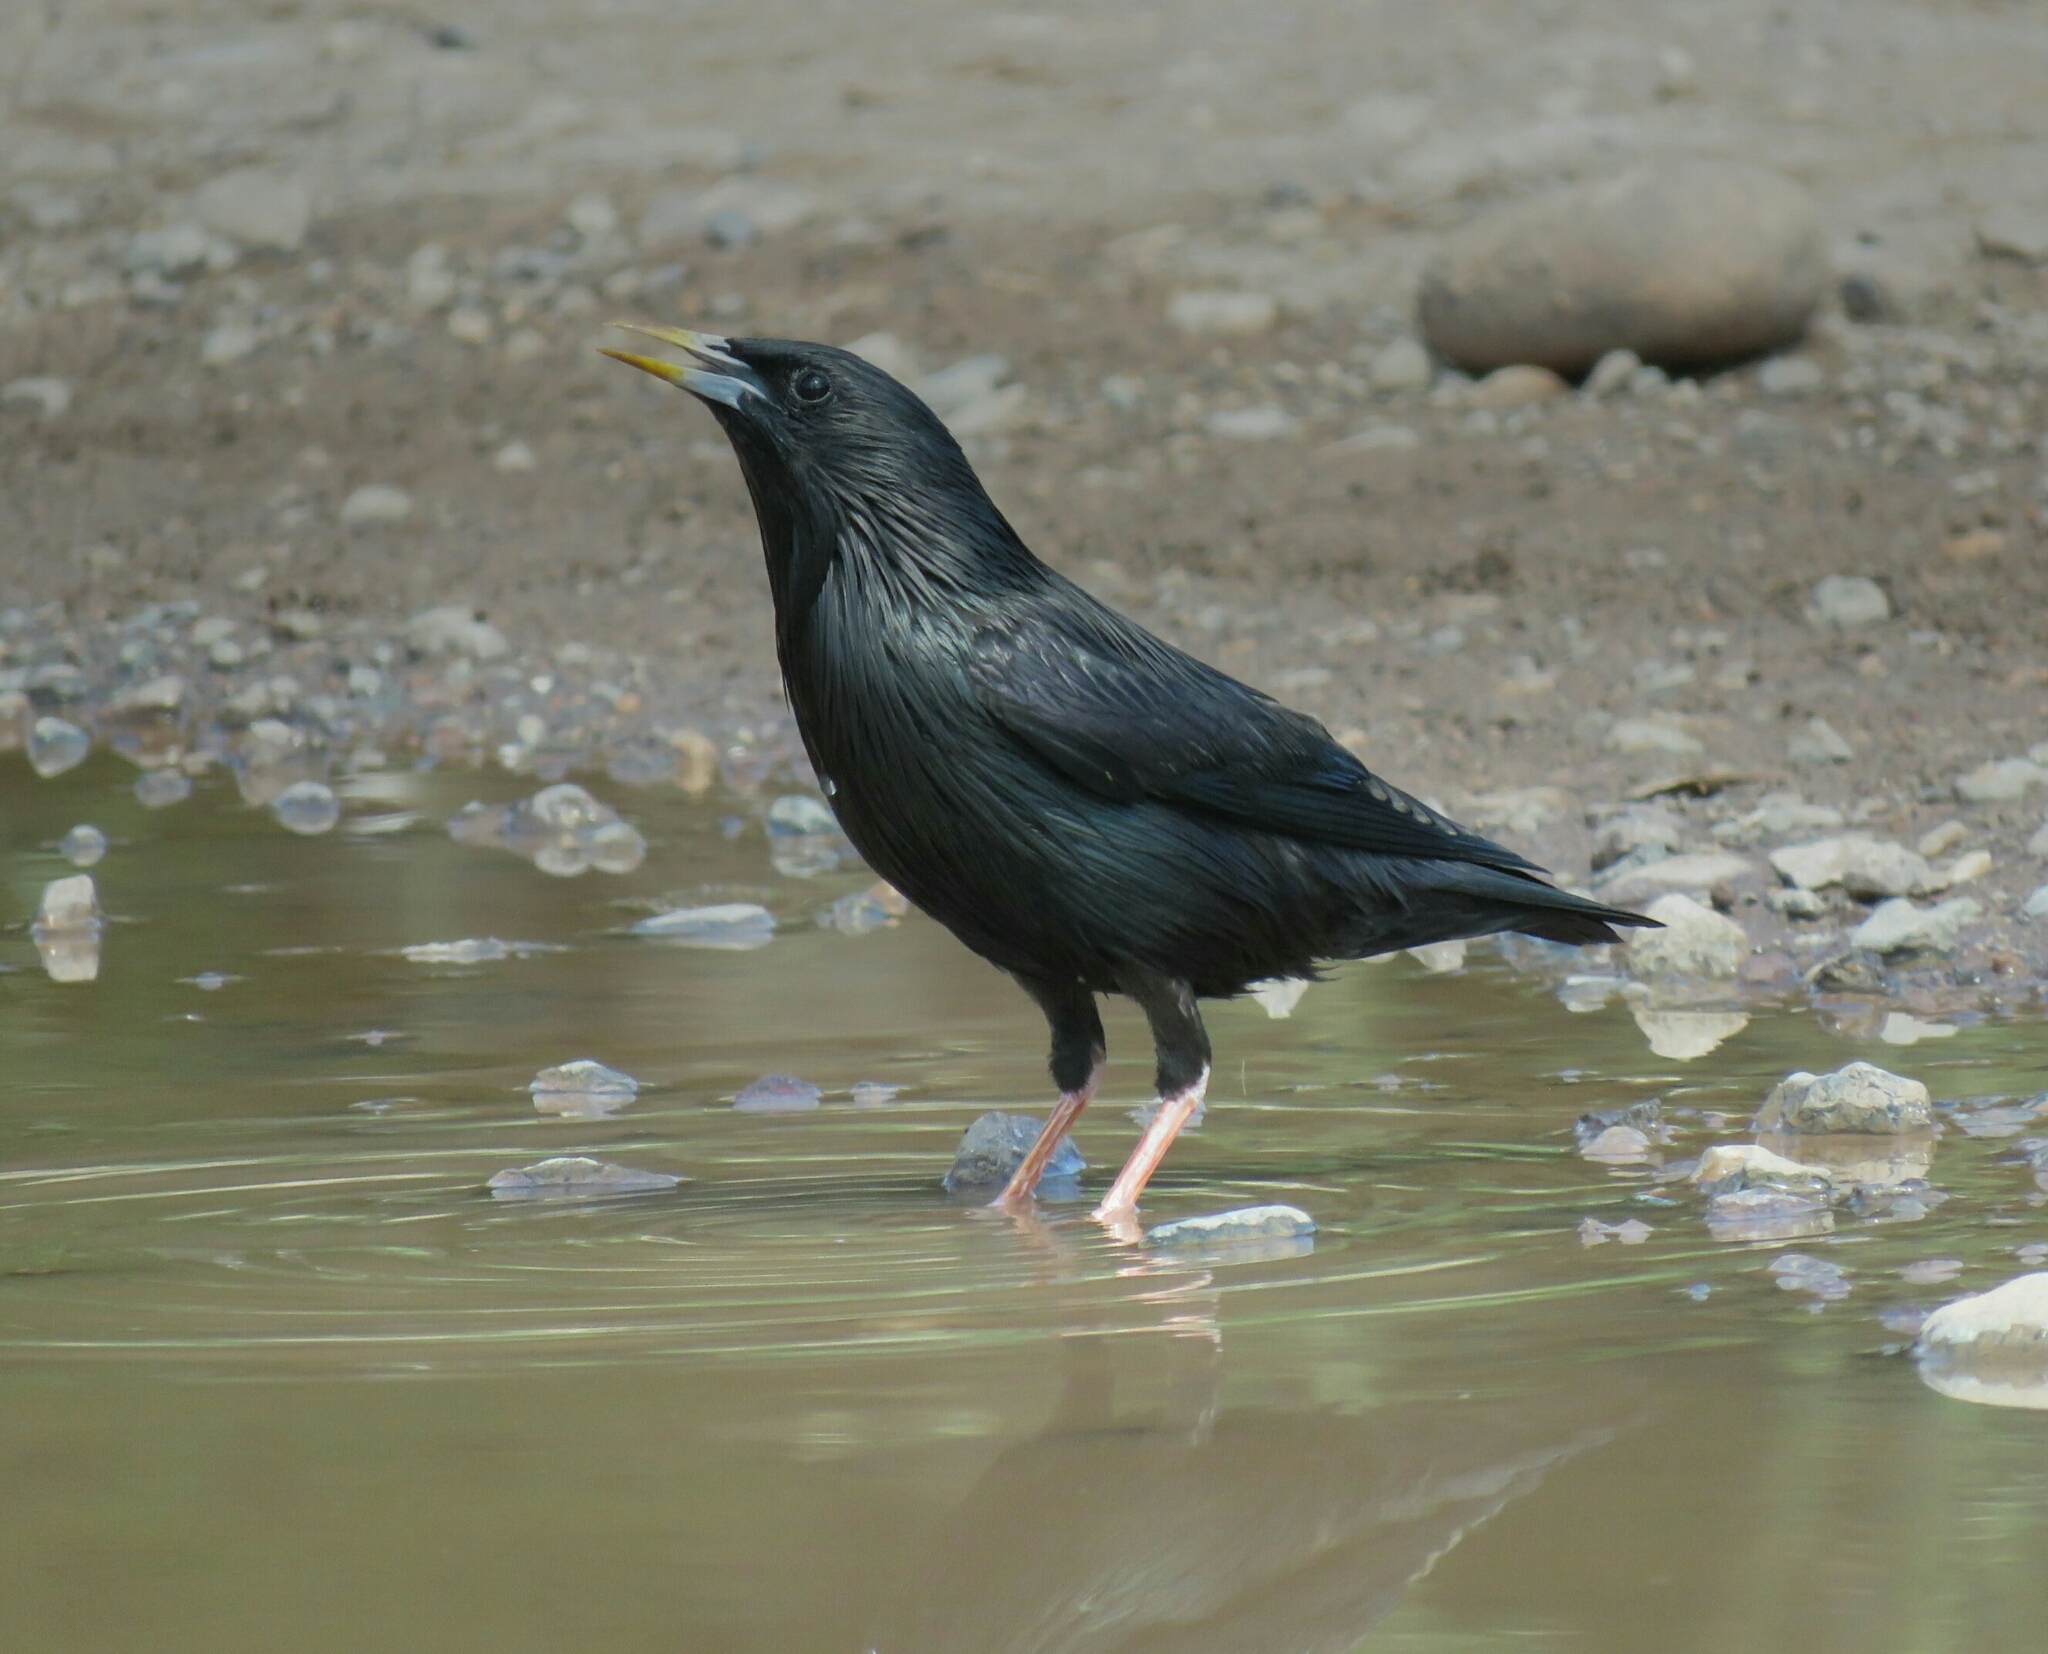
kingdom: Animalia
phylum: Chordata
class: Aves
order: Passeriformes
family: Sturnidae
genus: Sturnus
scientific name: Sturnus unicolor
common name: Spotless starling
